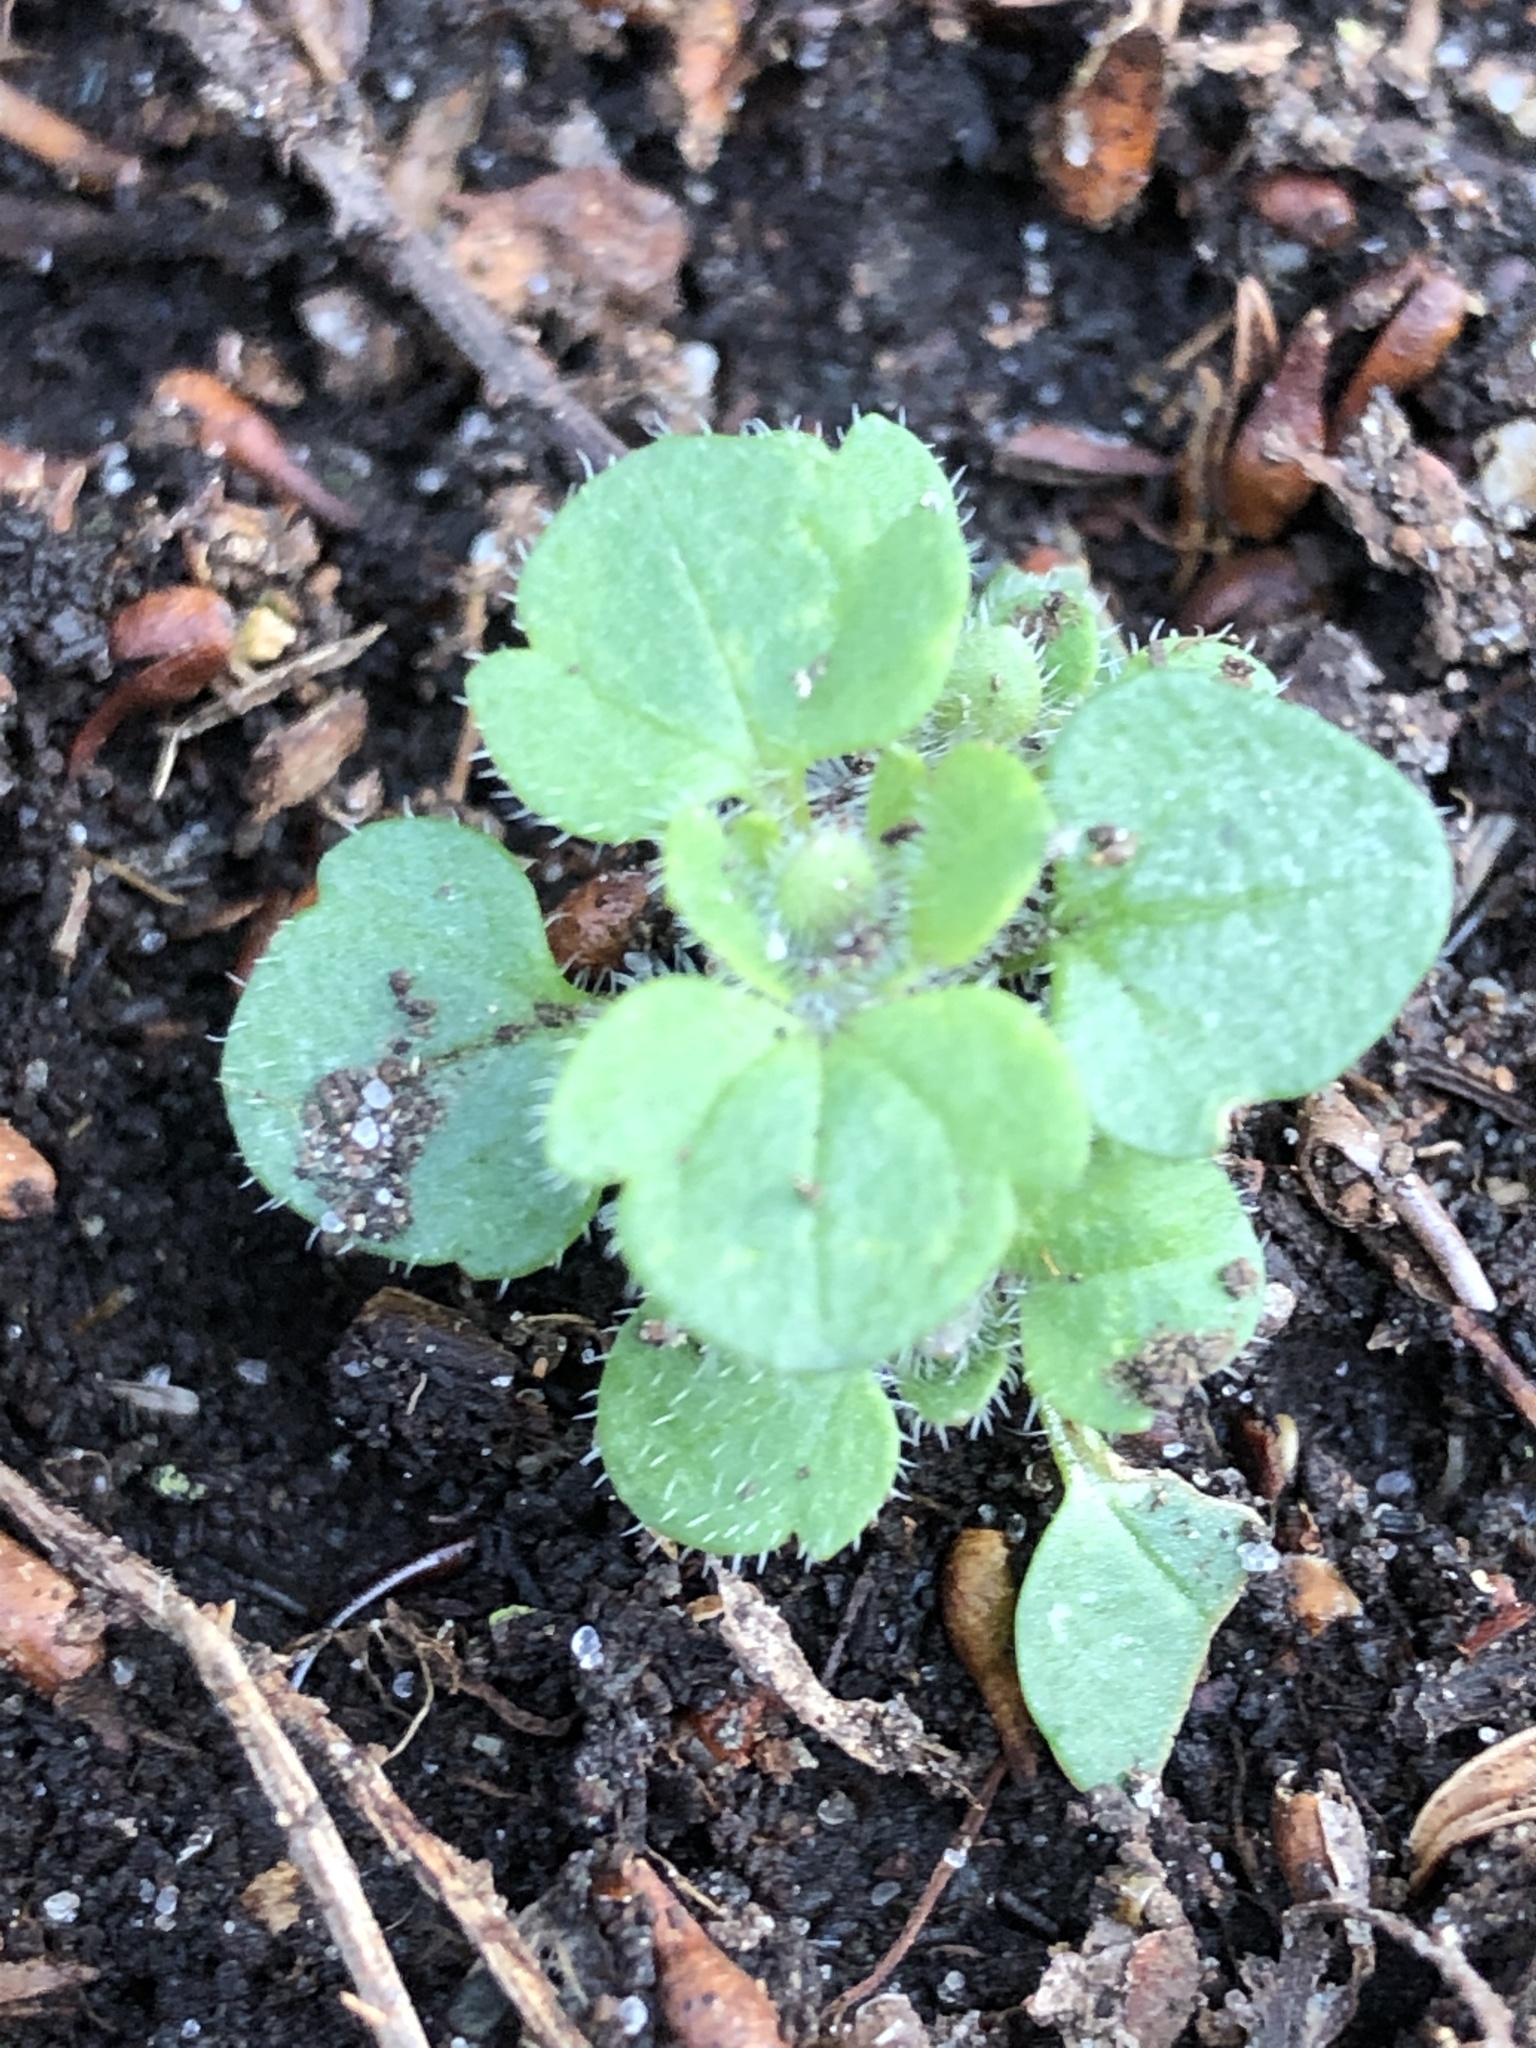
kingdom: Plantae
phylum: Tracheophyta
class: Magnoliopsida
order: Lamiales
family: Plantaginaceae
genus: Veronica
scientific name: Veronica hederifolia
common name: Ivy-leaved speedwell
